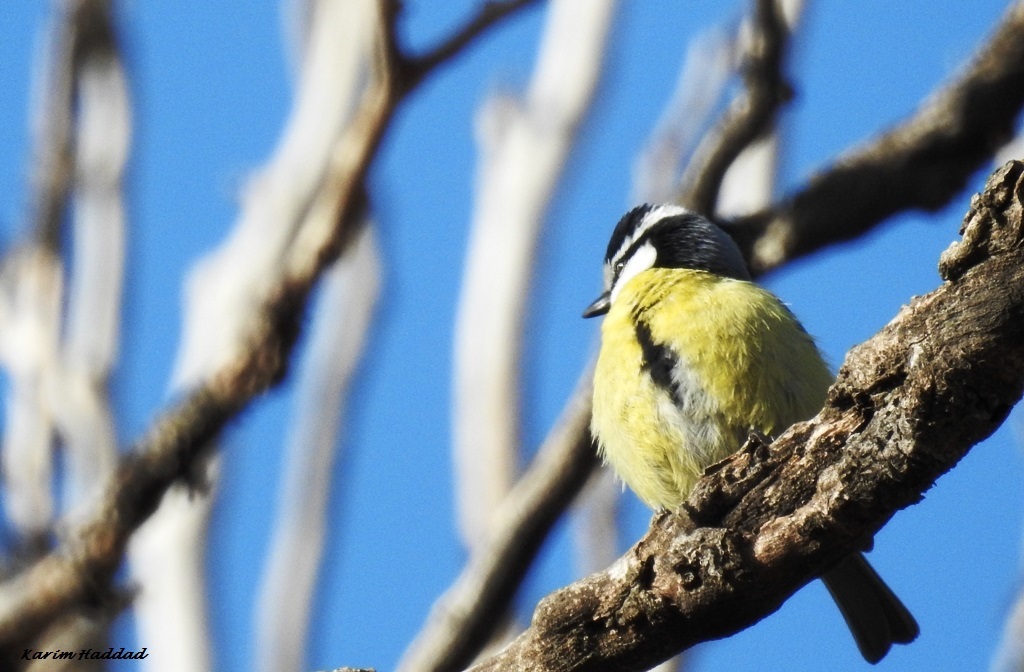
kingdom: Animalia
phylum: Chordata
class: Aves
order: Passeriformes
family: Paridae
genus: Cyanistes
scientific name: Cyanistes teneriffae
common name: African blue tit
